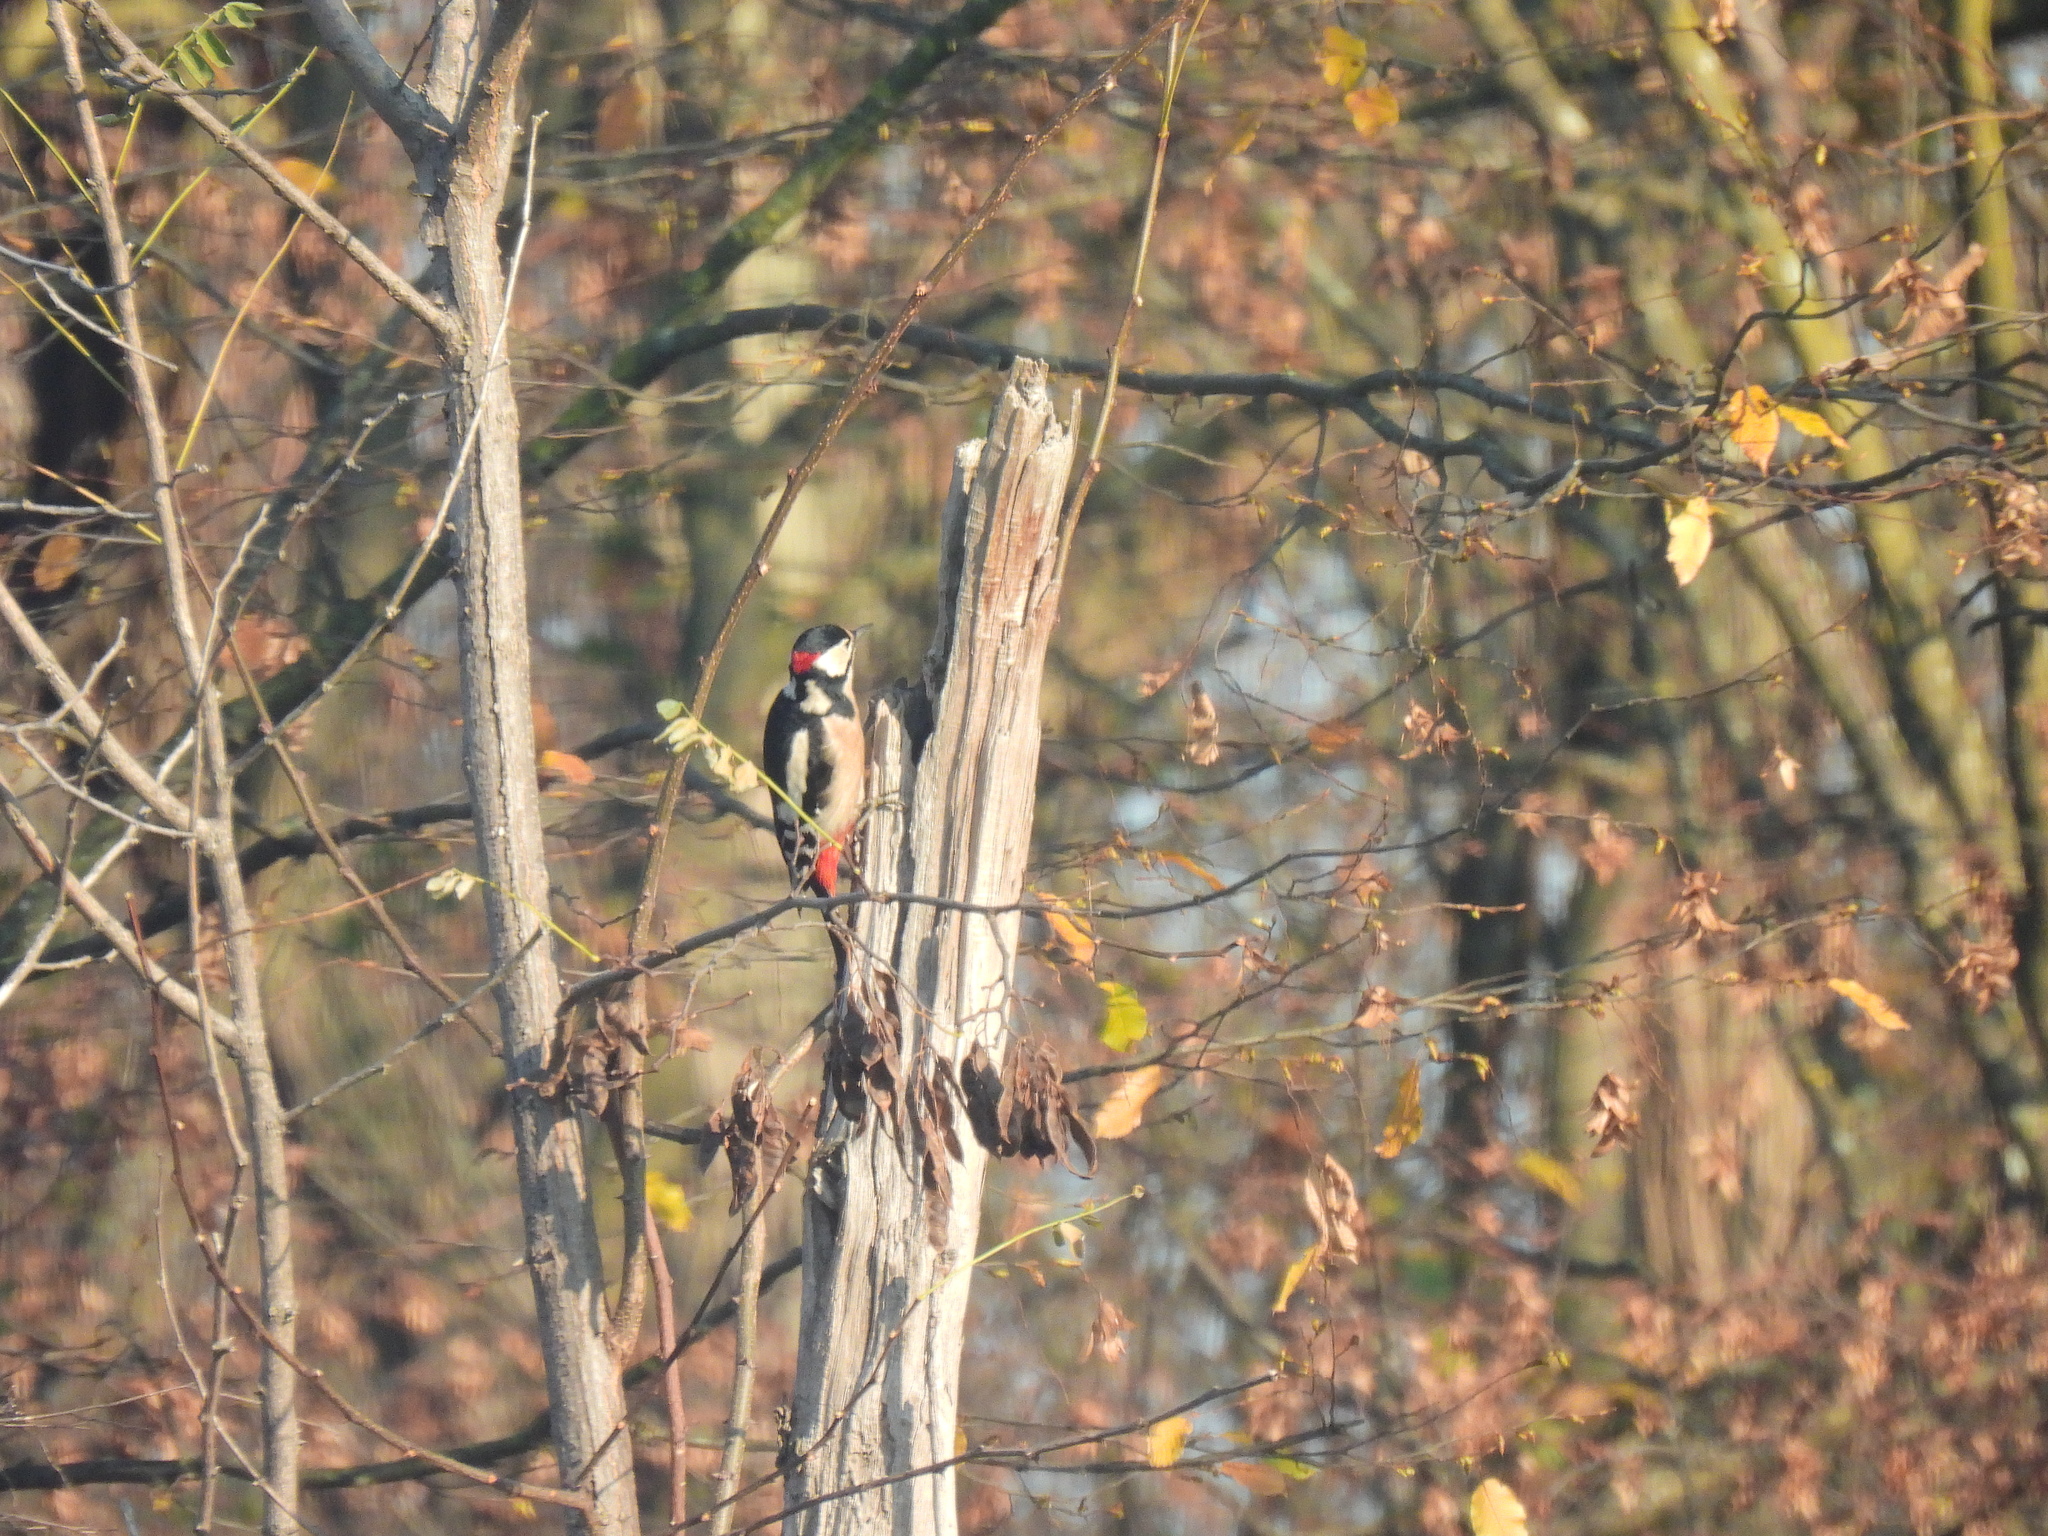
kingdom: Animalia
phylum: Chordata
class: Aves
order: Piciformes
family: Picidae
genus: Dendrocopos
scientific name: Dendrocopos major
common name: Great spotted woodpecker
